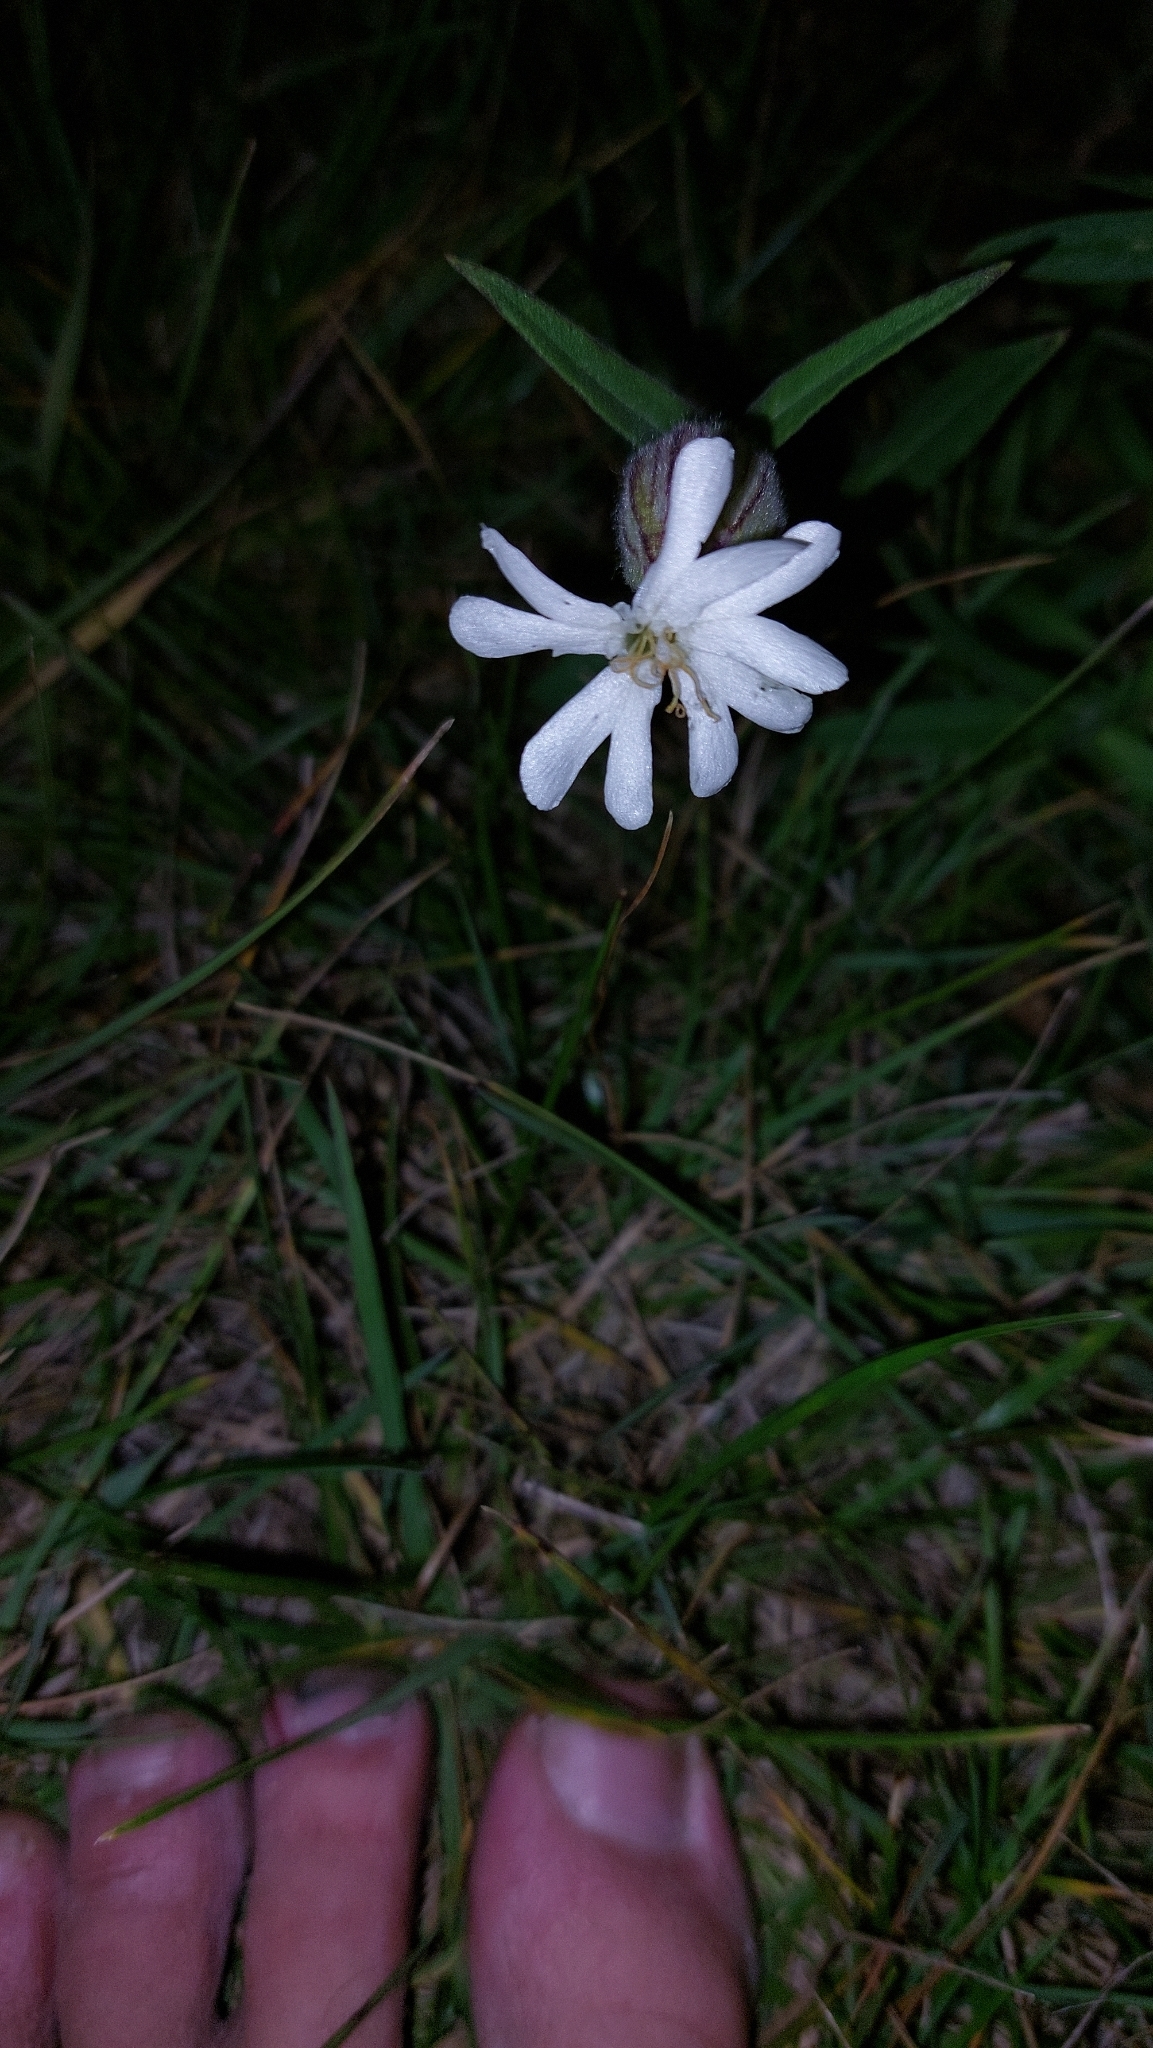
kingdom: Plantae
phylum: Tracheophyta
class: Magnoliopsida
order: Caryophyllales
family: Caryophyllaceae
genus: Silene
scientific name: Silene latifolia
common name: White campion
